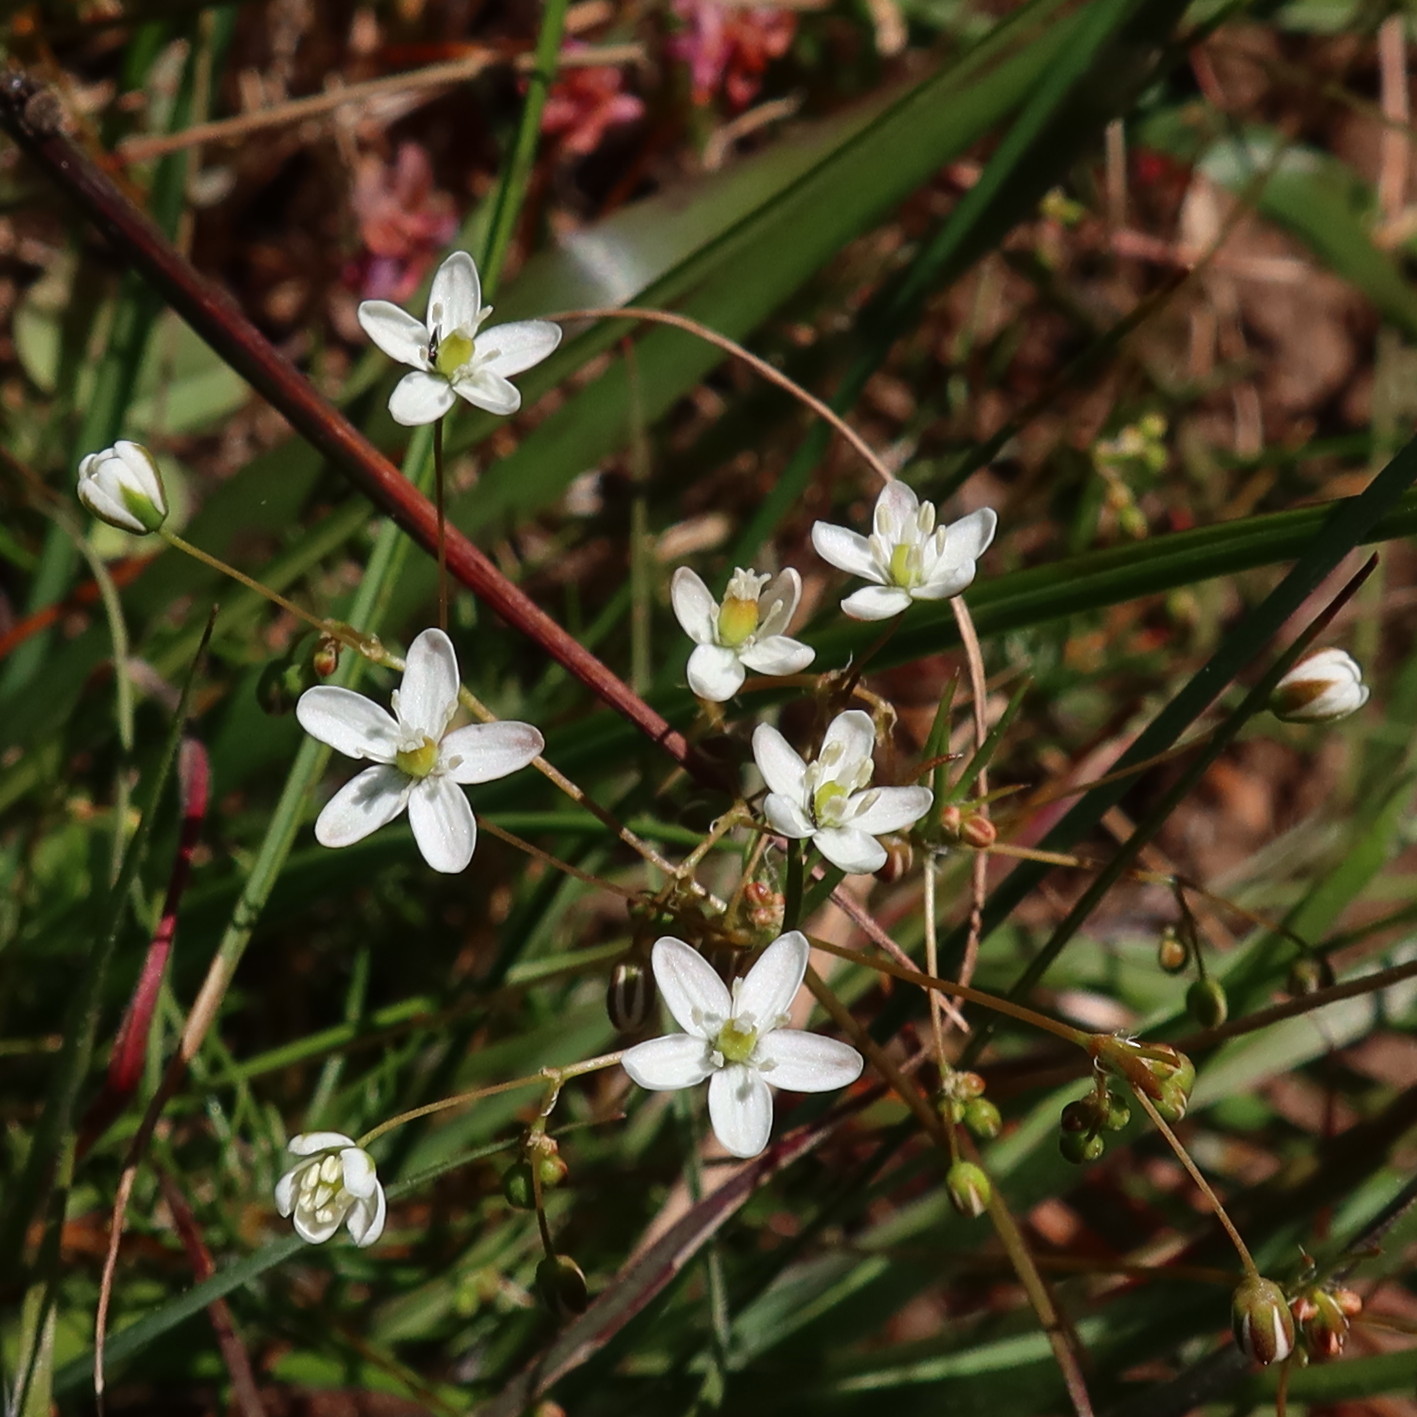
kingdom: Plantae
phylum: Tracheophyta
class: Magnoliopsida
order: Caryophyllales
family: Molluginaceae
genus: Pharnaceum
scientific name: Pharnaceum elongatum
